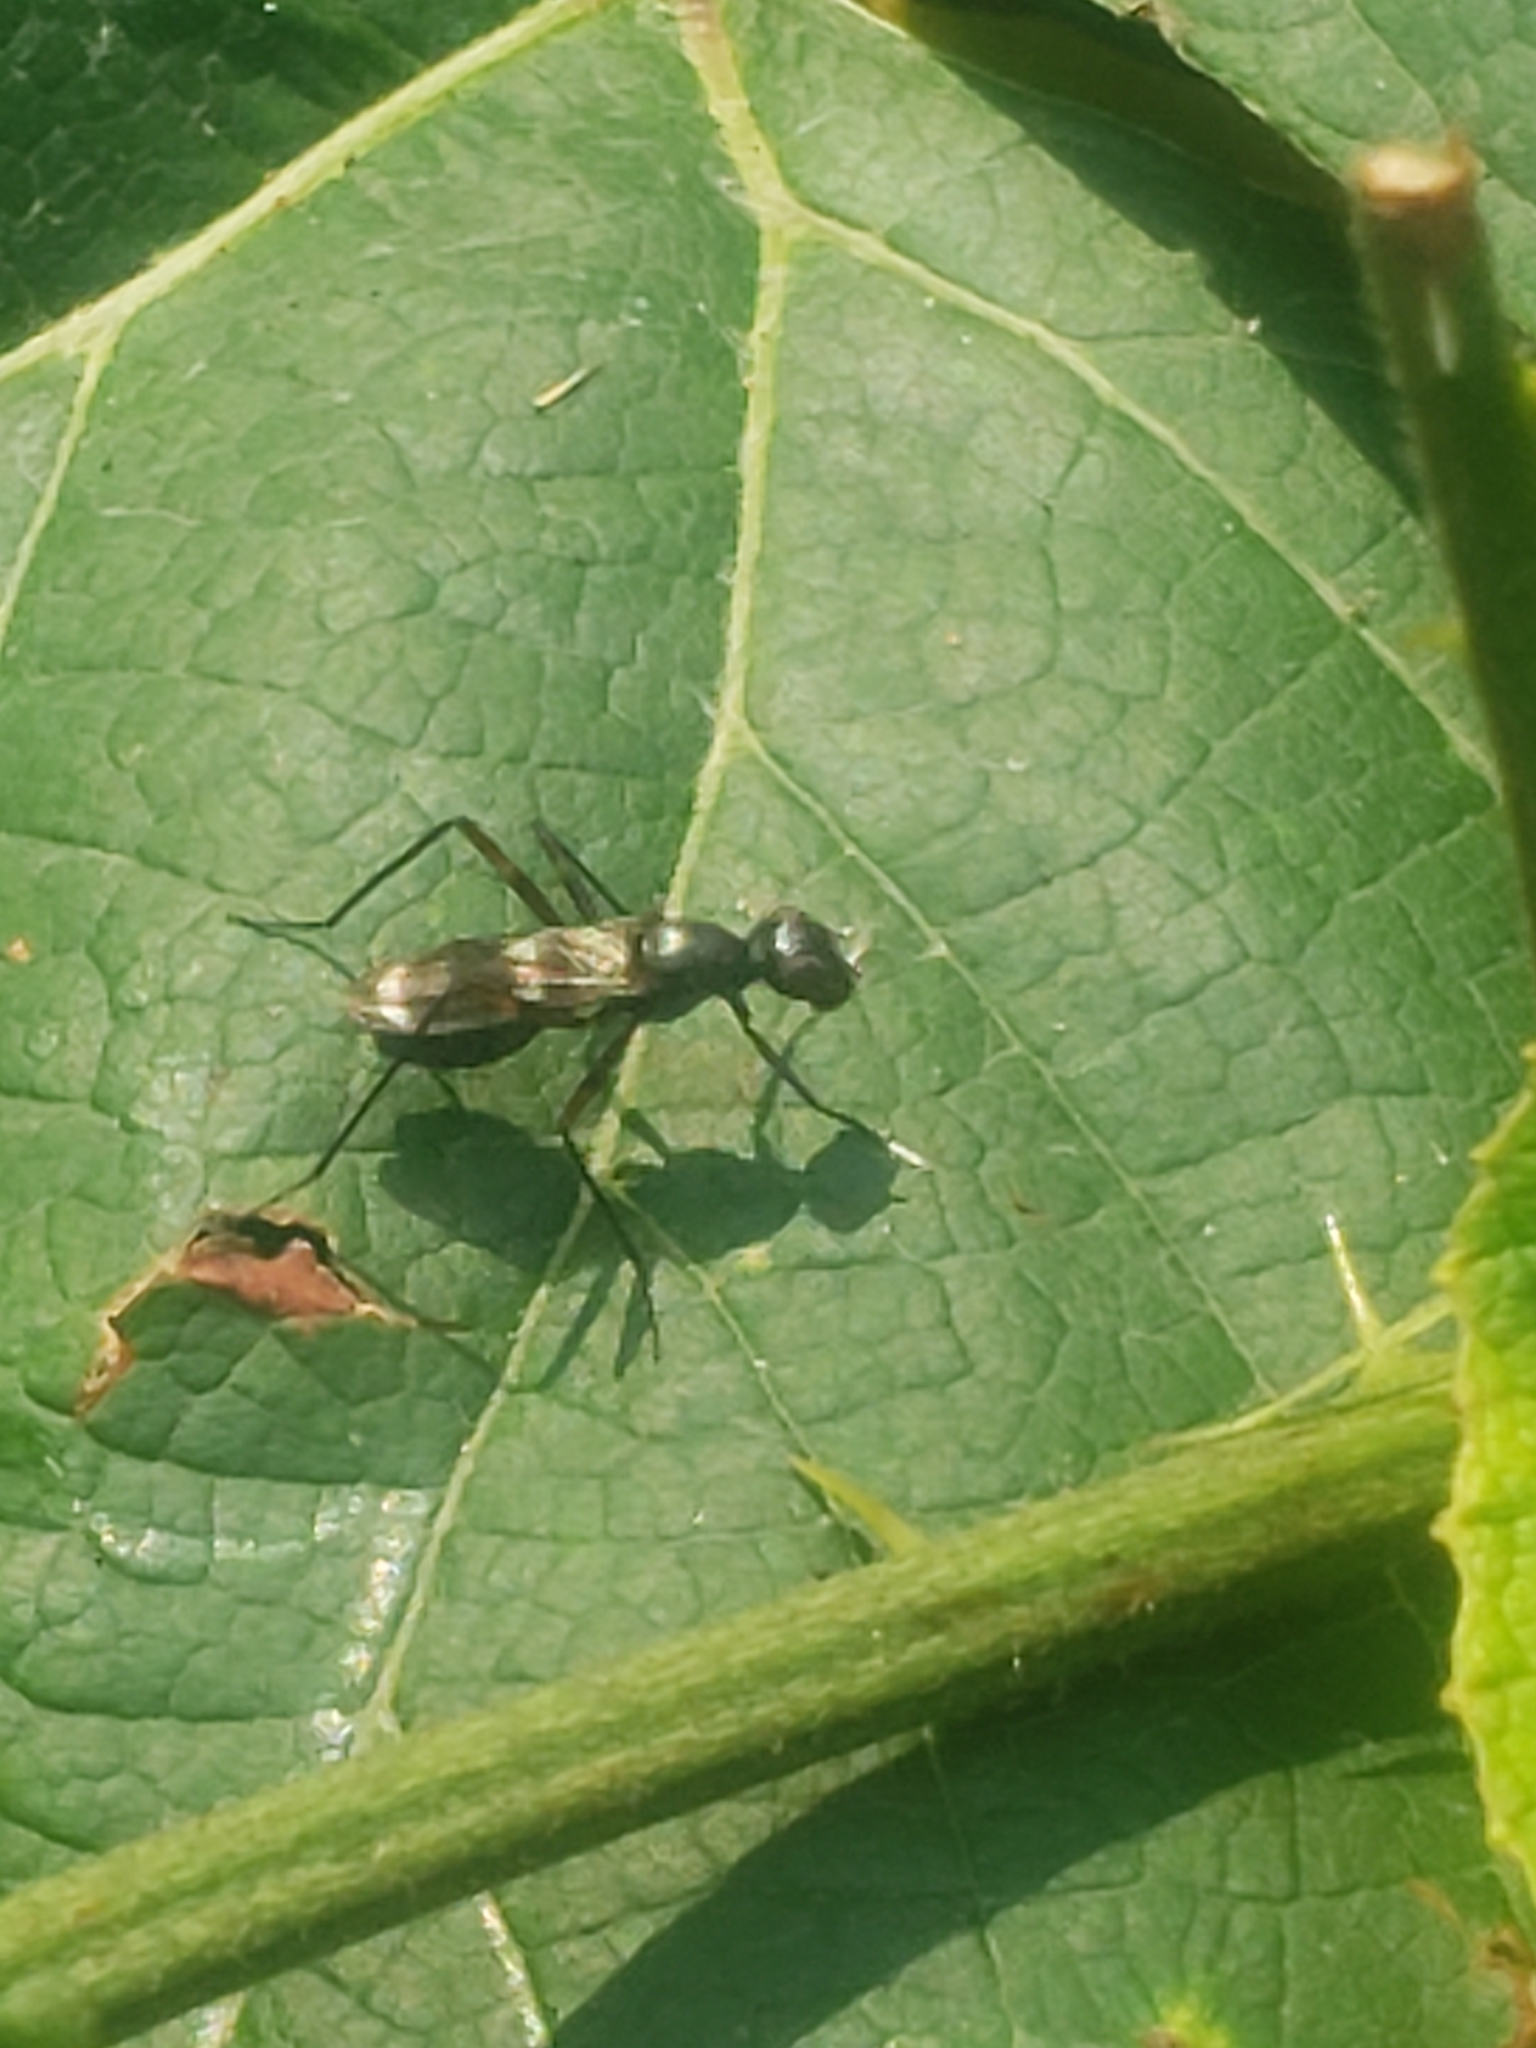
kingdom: Animalia
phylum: Arthropoda
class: Insecta
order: Diptera
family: Micropezidae
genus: Taeniaptera
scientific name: Taeniaptera trivittata
